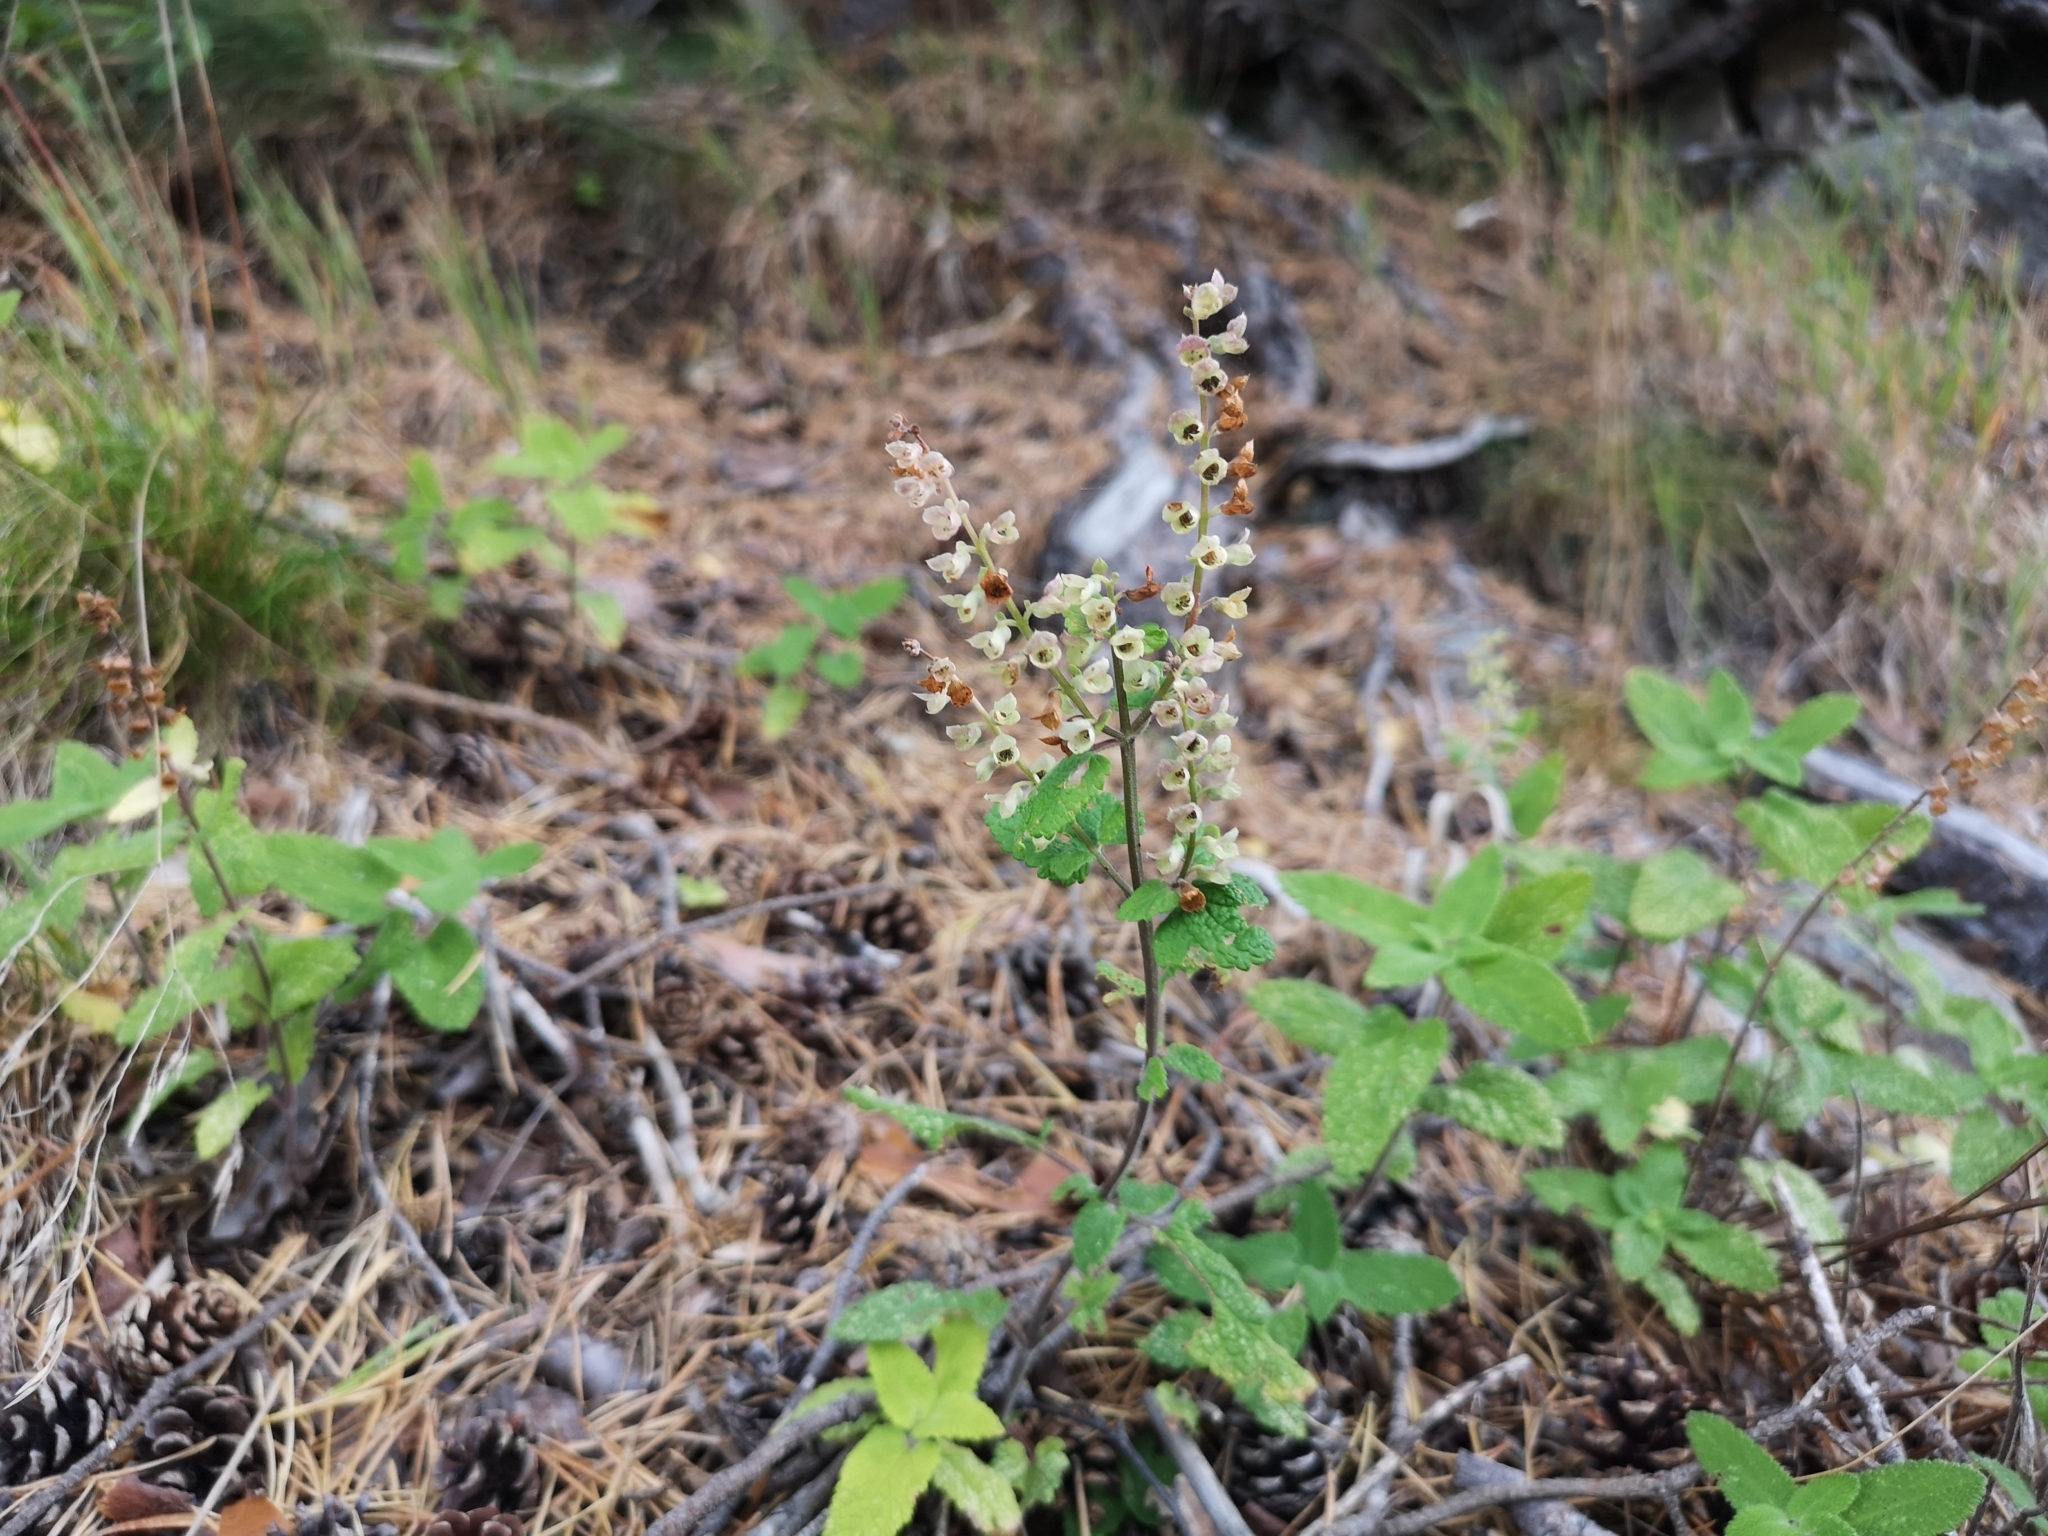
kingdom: Plantae
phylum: Tracheophyta
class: Magnoliopsida
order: Lamiales
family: Lamiaceae
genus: Teucrium
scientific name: Teucrium scorodonia
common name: Woodland germander
